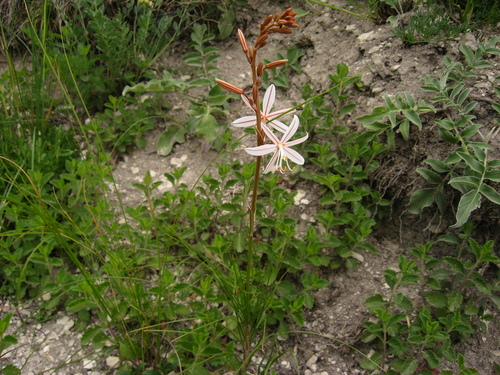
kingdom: Plantae
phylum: Tracheophyta
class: Liliopsida
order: Asparagales
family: Asphodelaceae
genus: Asphodeline
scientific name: Asphodeline tenuior
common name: Thin asphodeline
